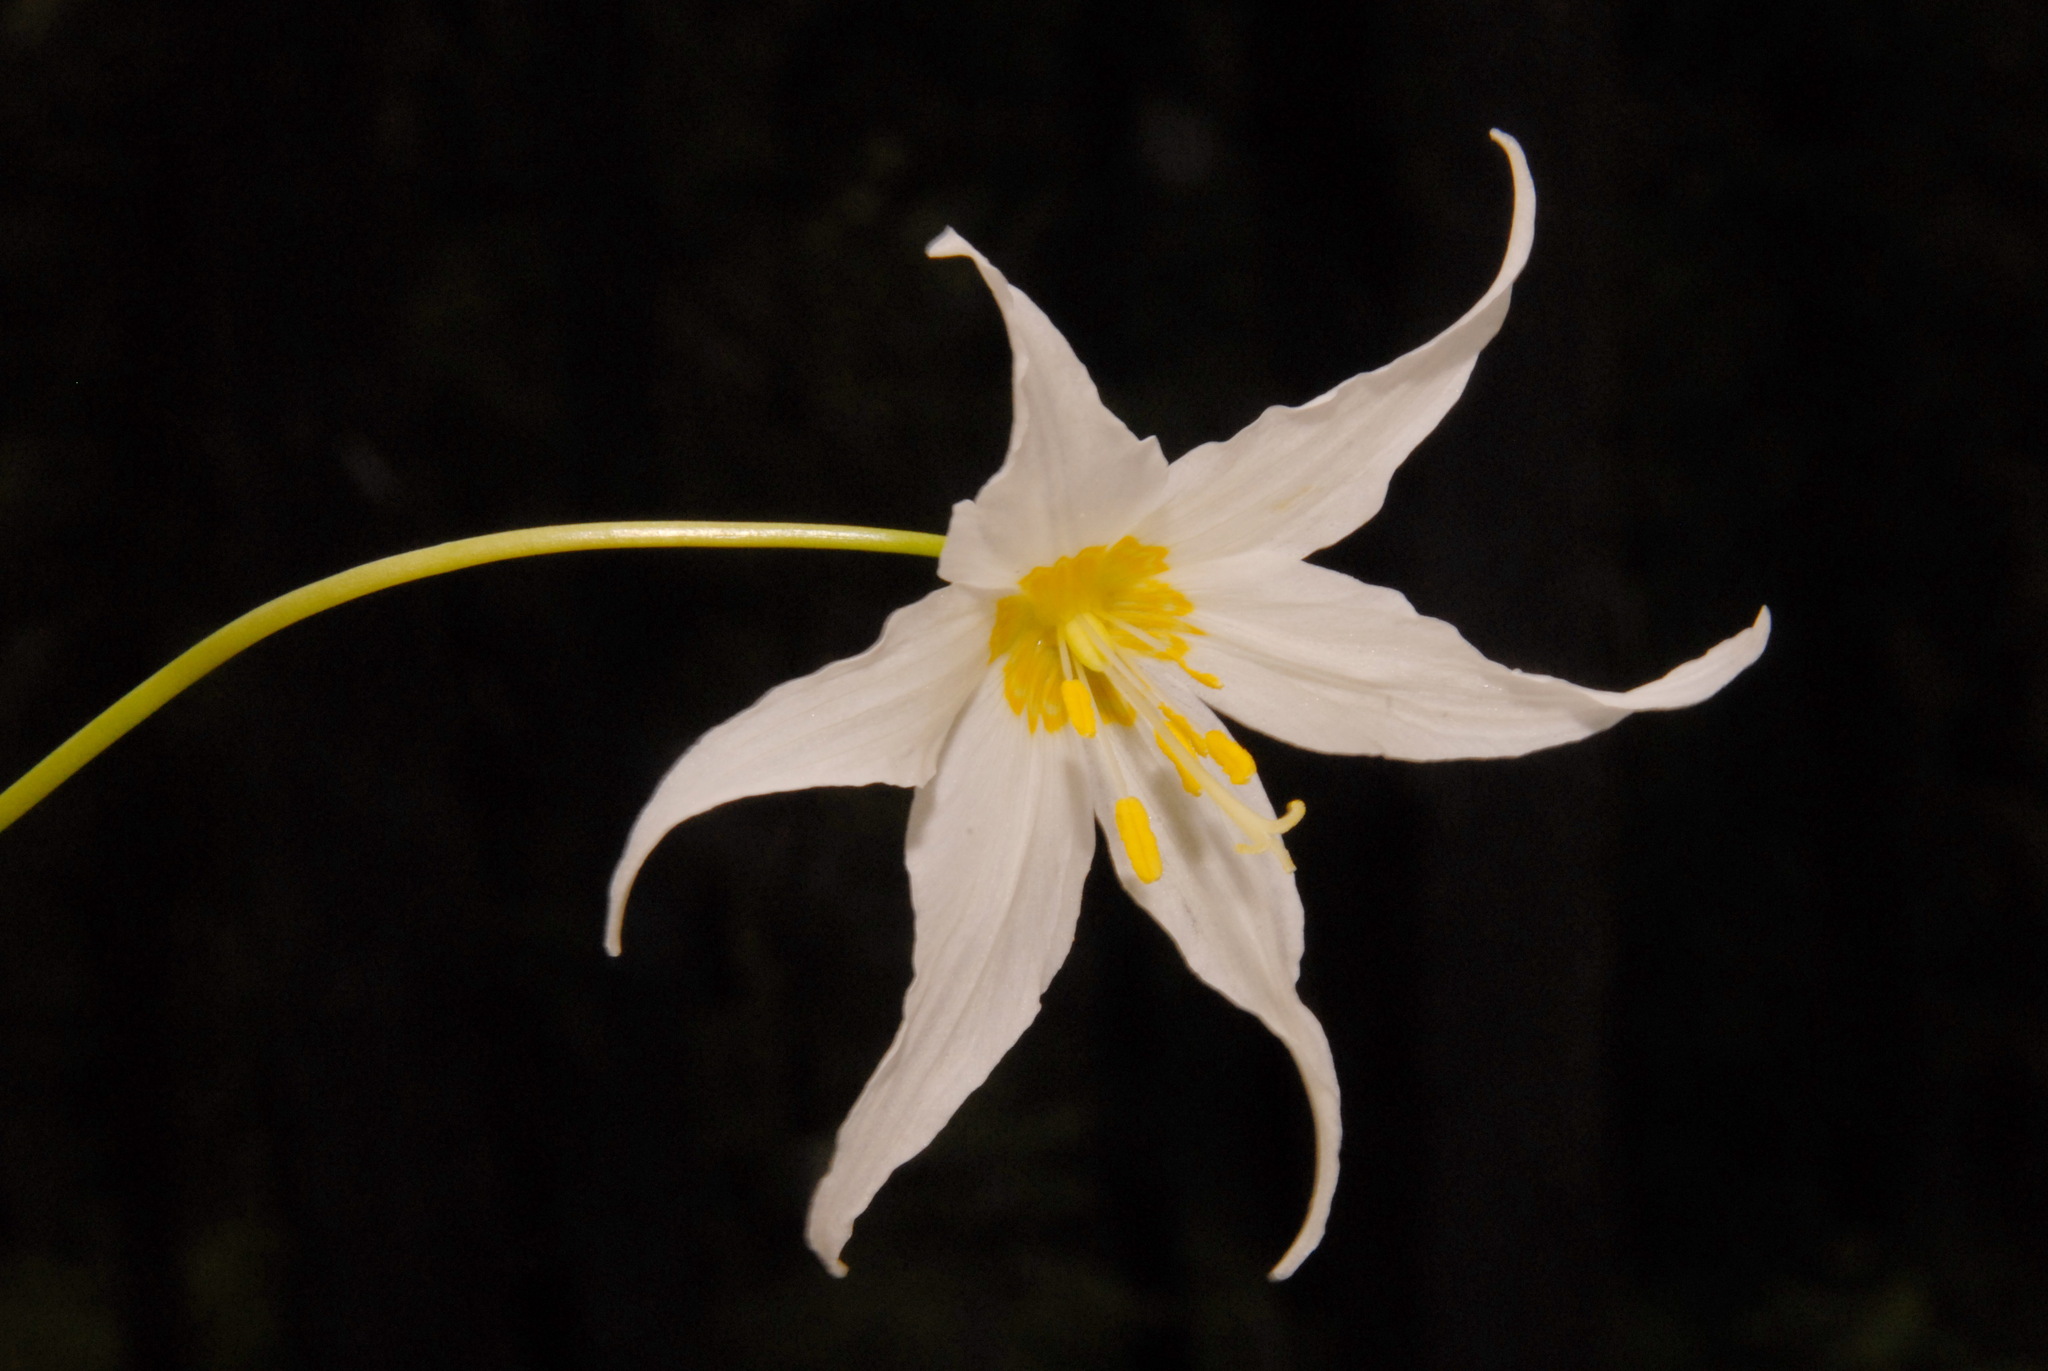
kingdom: Plantae
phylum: Tracheophyta
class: Liliopsida
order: Liliales
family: Liliaceae
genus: Erythronium
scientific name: Erythronium montanum
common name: Avalanche lily
